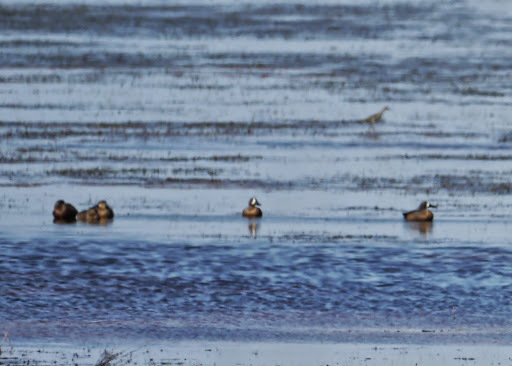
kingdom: Animalia
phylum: Chordata
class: Aves
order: Anseriformes
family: Anatidae
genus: Spatula
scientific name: Spatula discors
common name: Blue-winged teal
